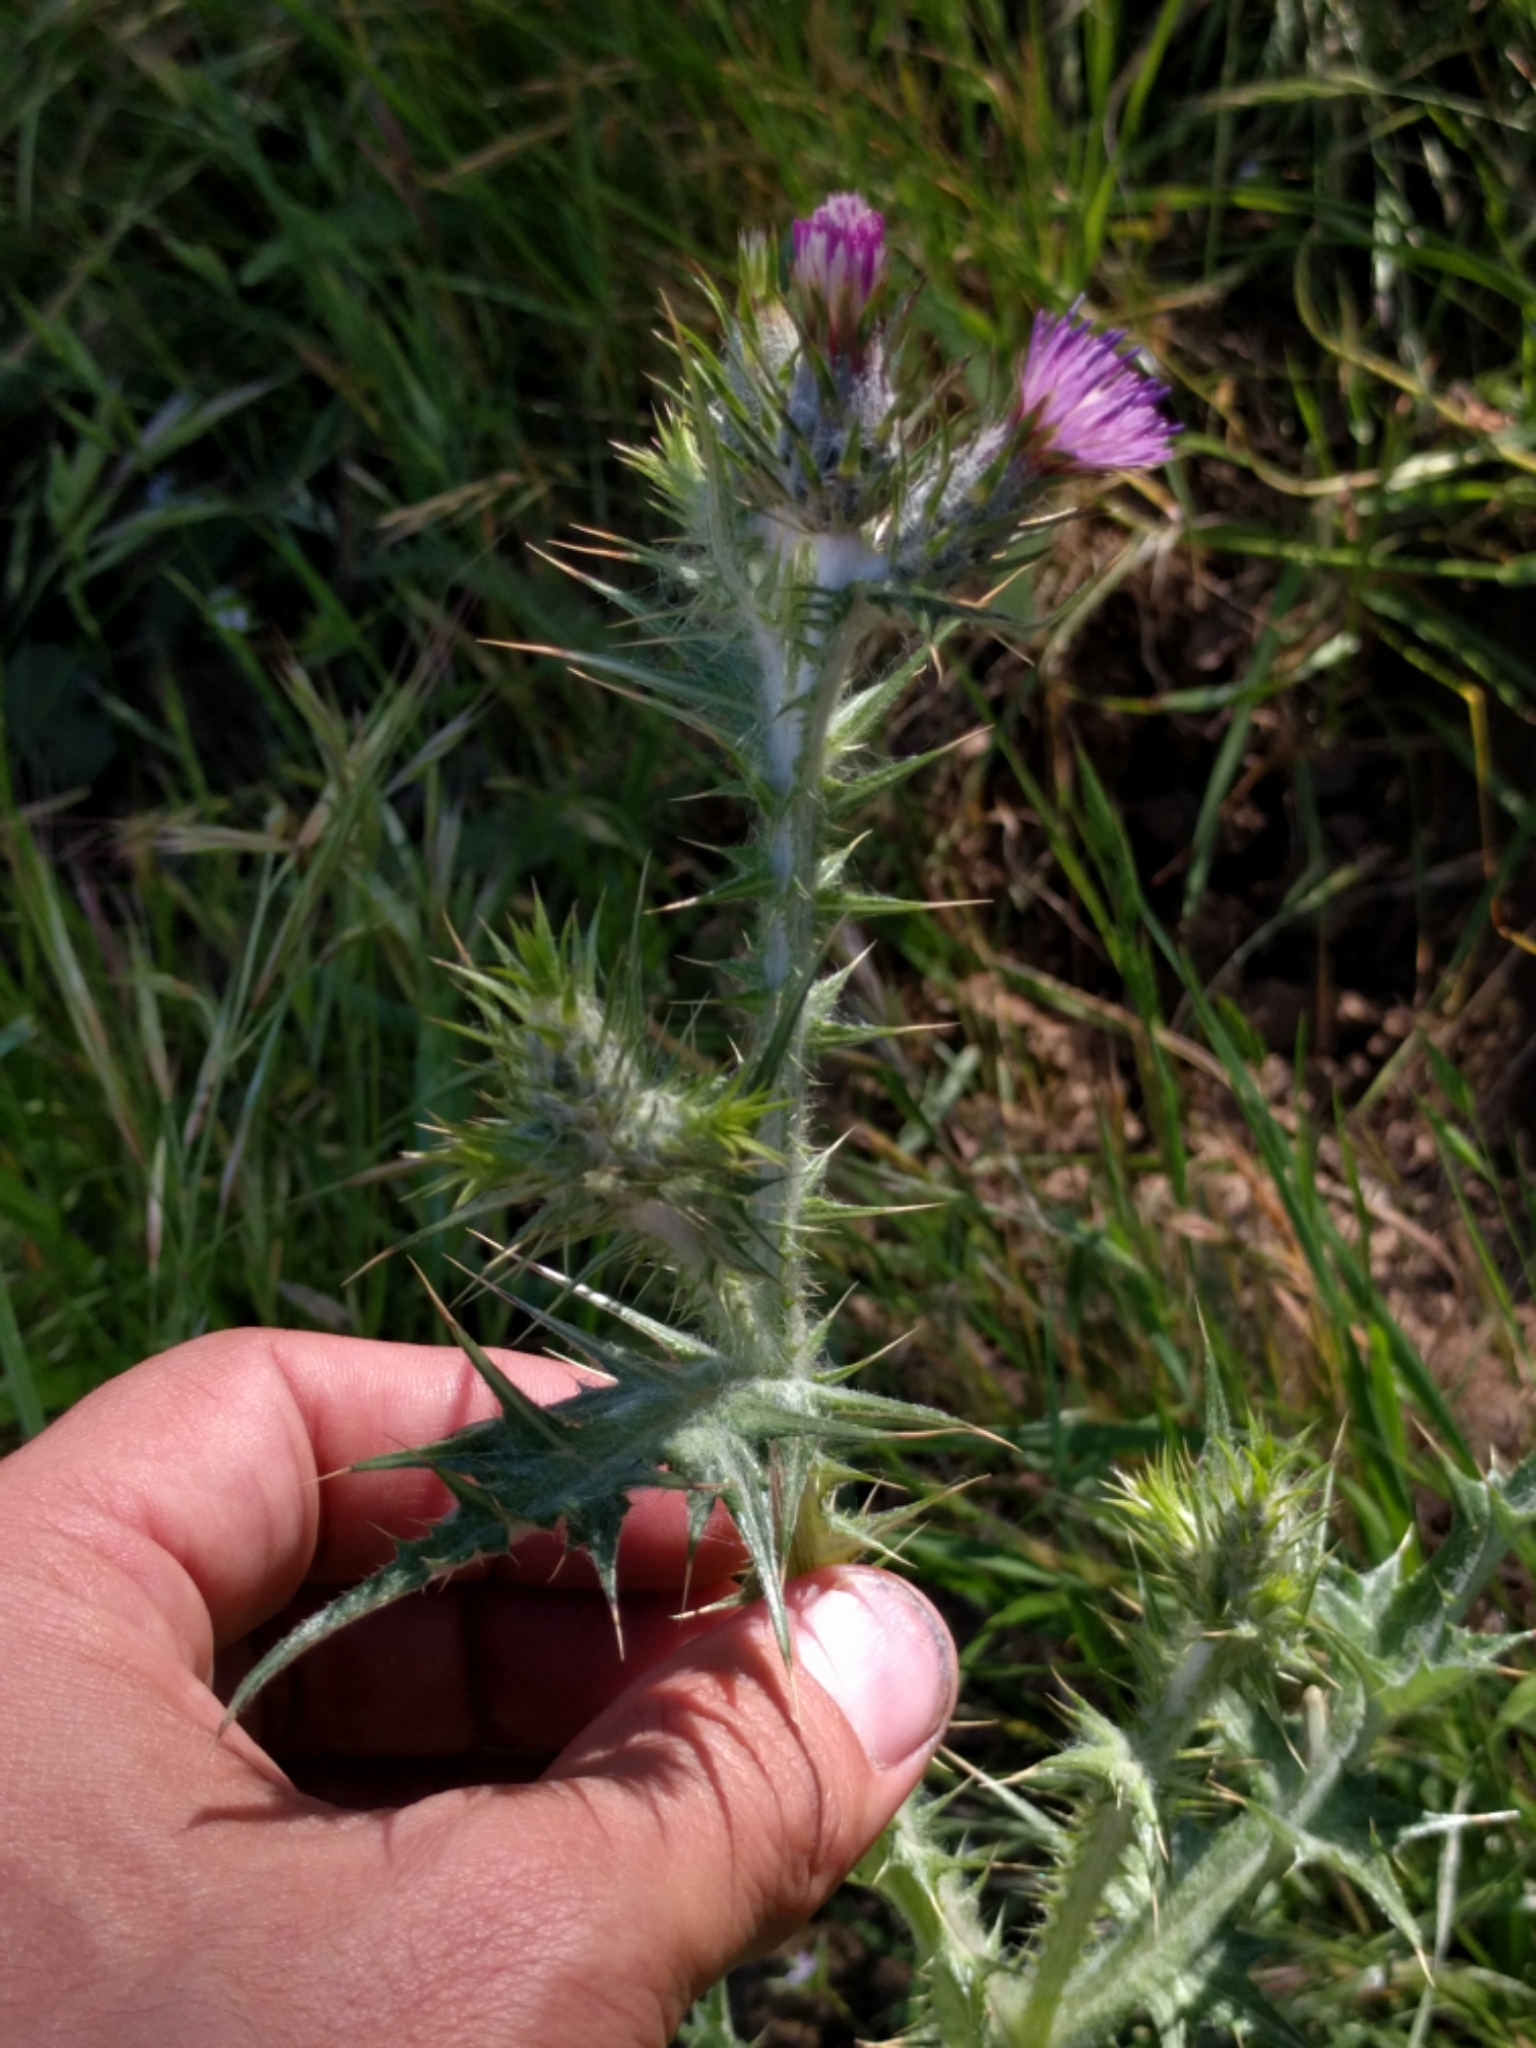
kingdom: Plantae
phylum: Tracheophyta
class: Magnoliopsida
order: Asterales
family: Asteraceae
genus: Carduus
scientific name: Carduus pycnocephalus
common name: Plymouth thistle
